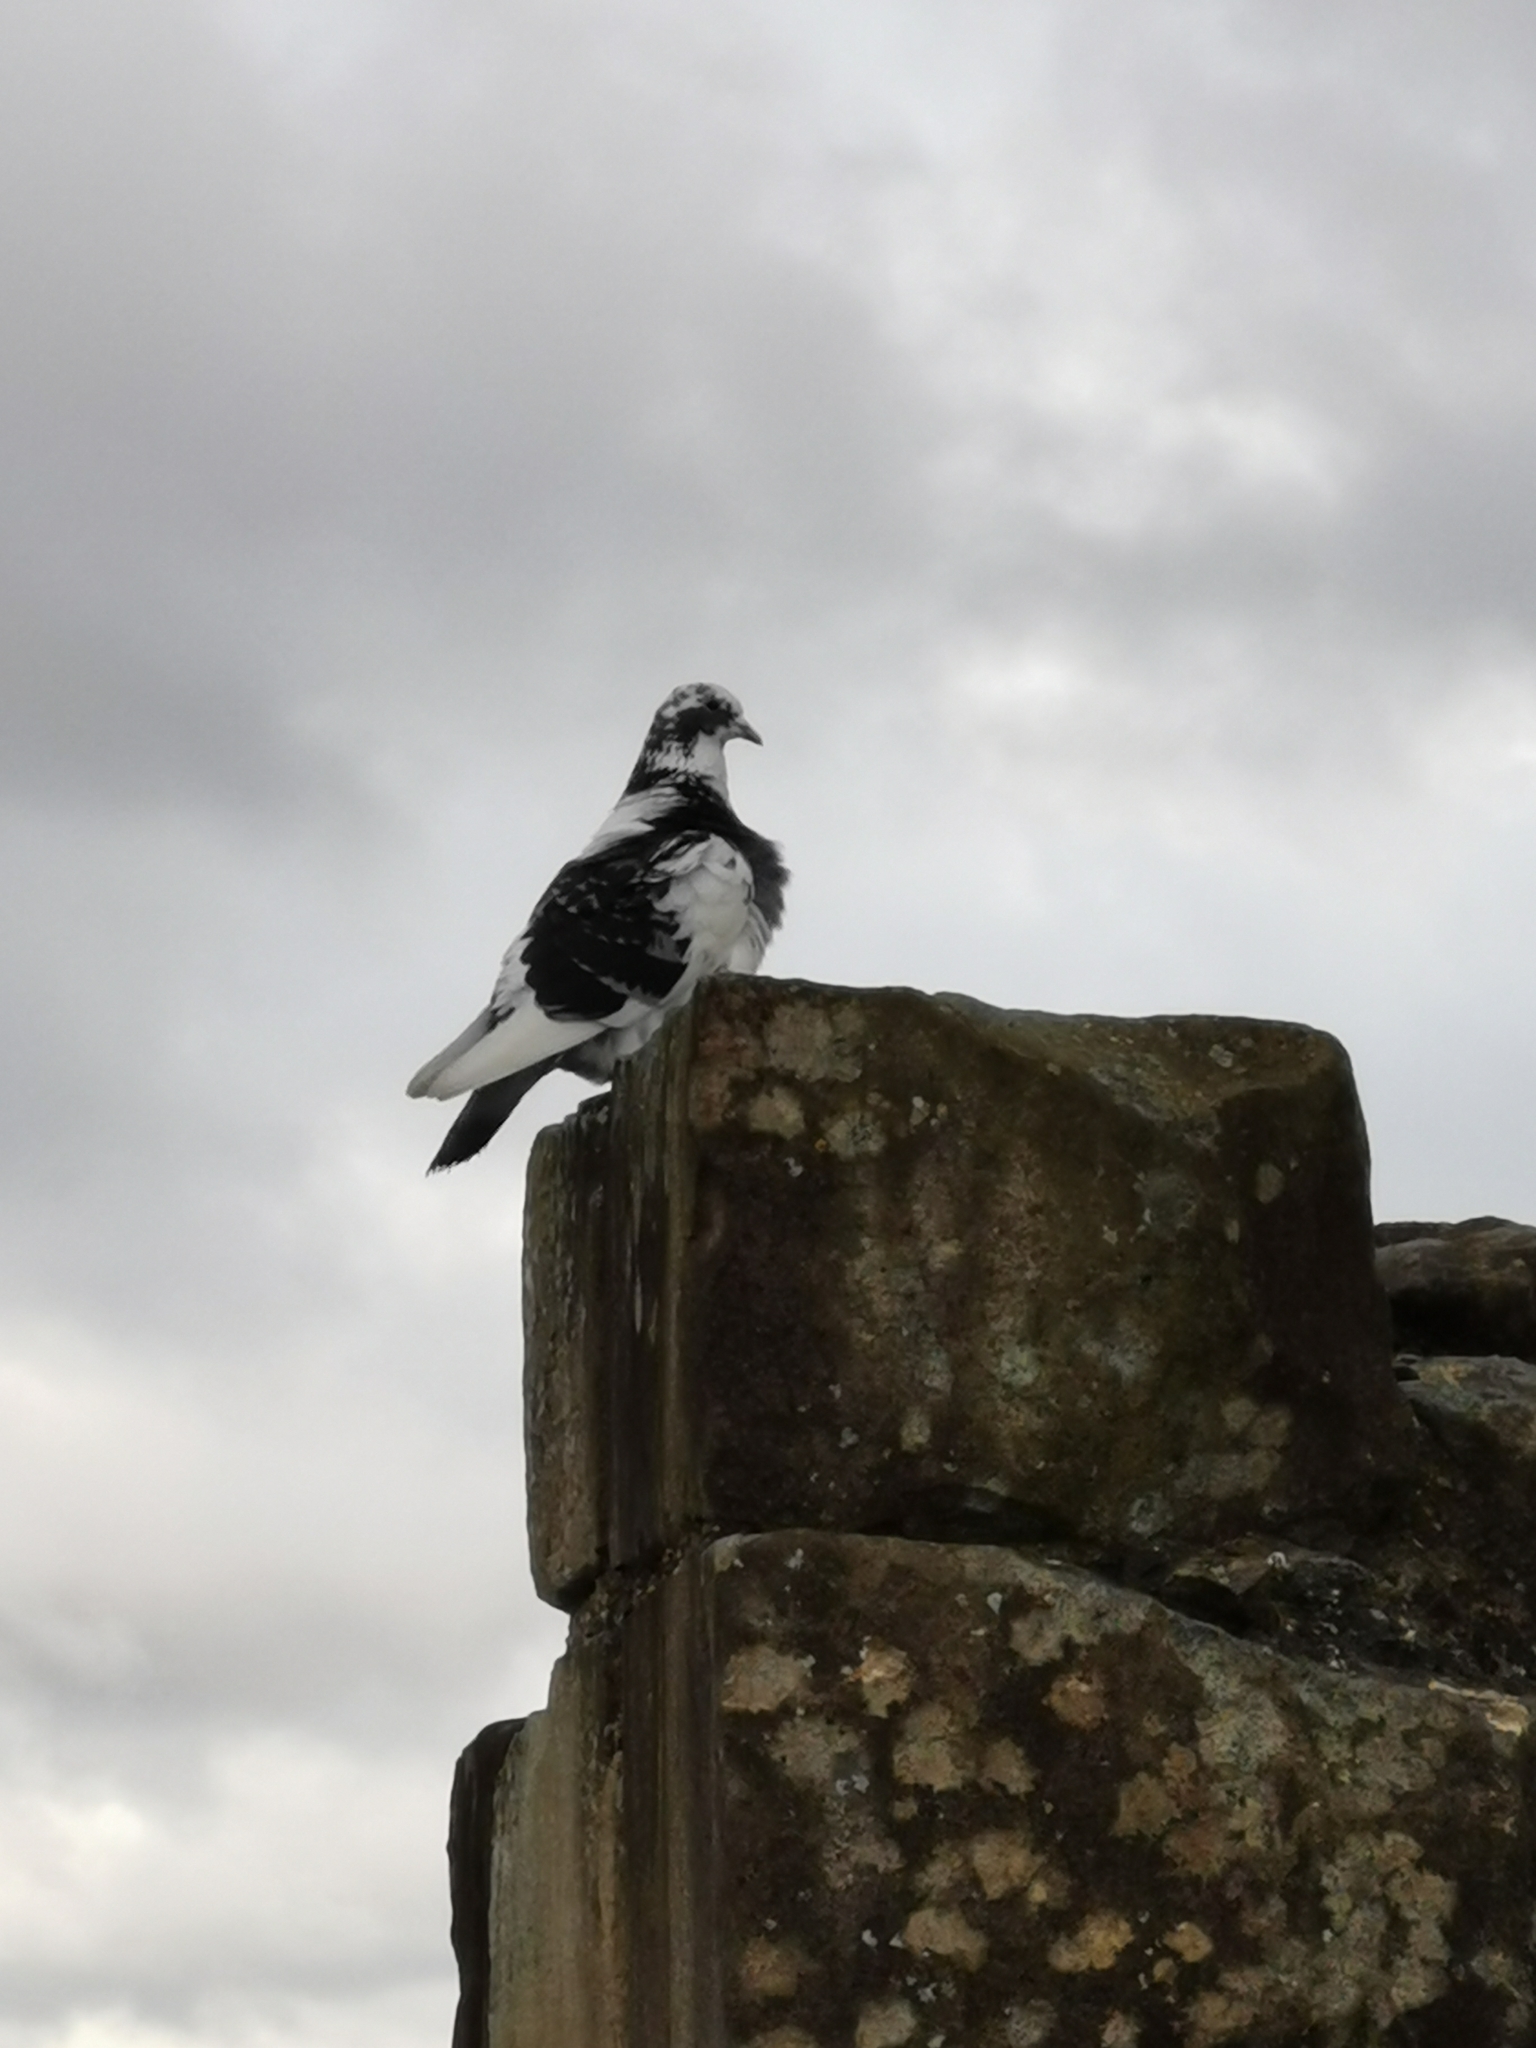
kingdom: Animalia
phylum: Chordata
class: Aves
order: Columbiformes
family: Columbidae
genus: Columba
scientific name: Columba livia
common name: Rock pigeon
